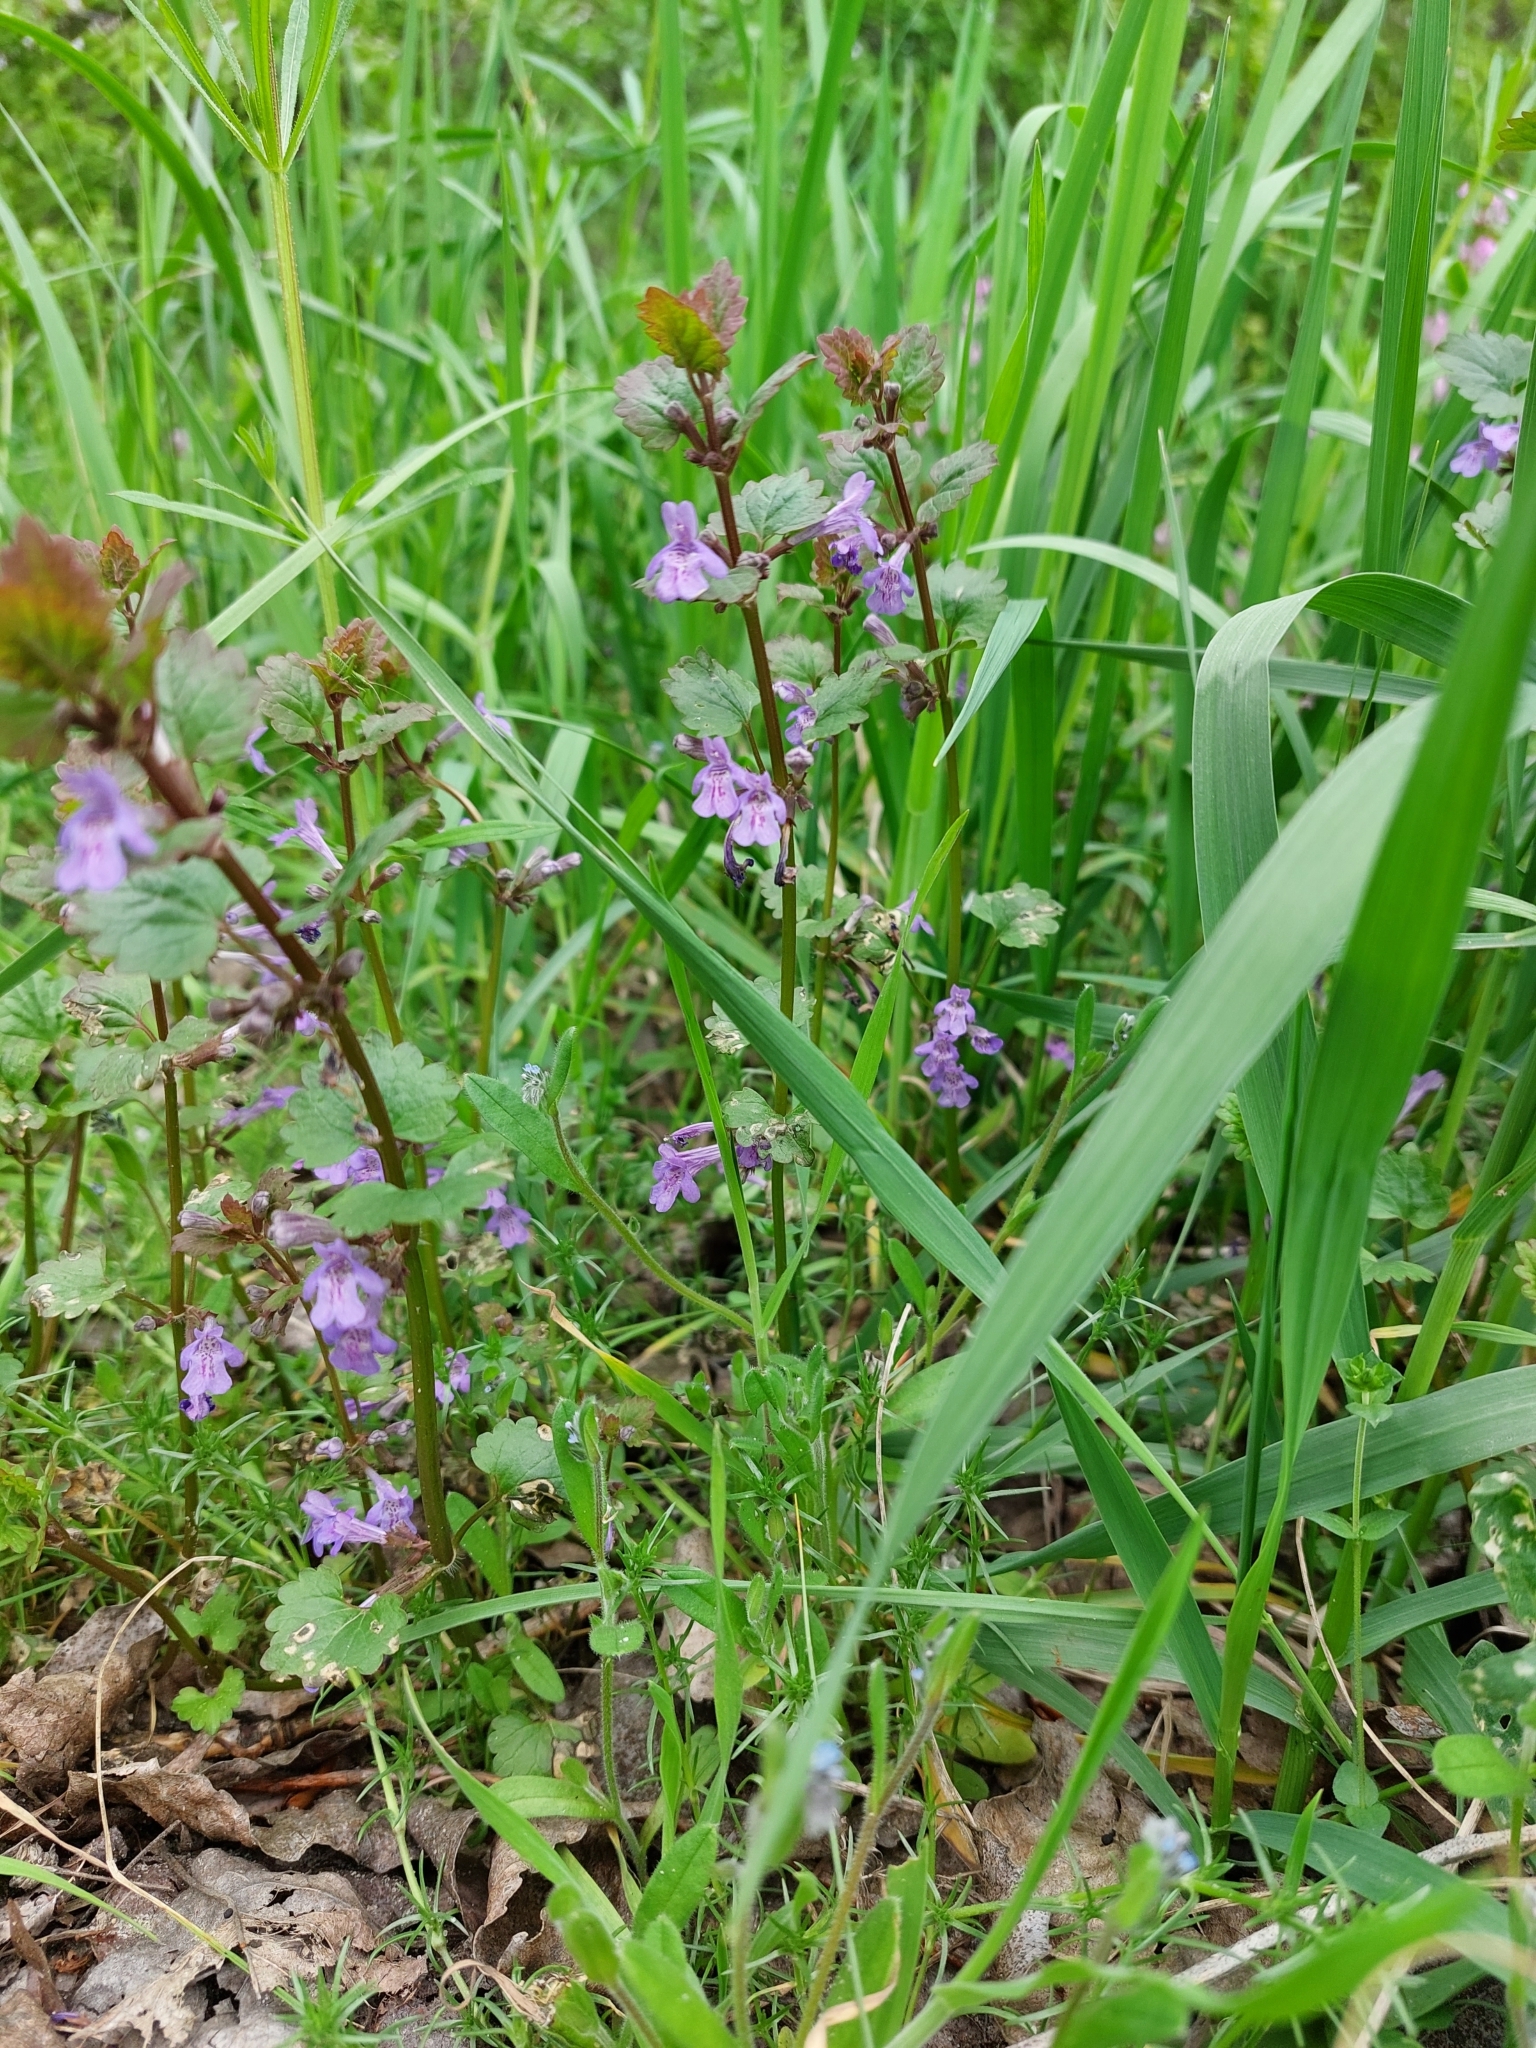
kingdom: Plantae
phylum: Tracheophyta
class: Magnoliopsida
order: Lamiales
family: Lamiaceae
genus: Glechoma
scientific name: Glechoma hederacea
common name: Ground ivy
